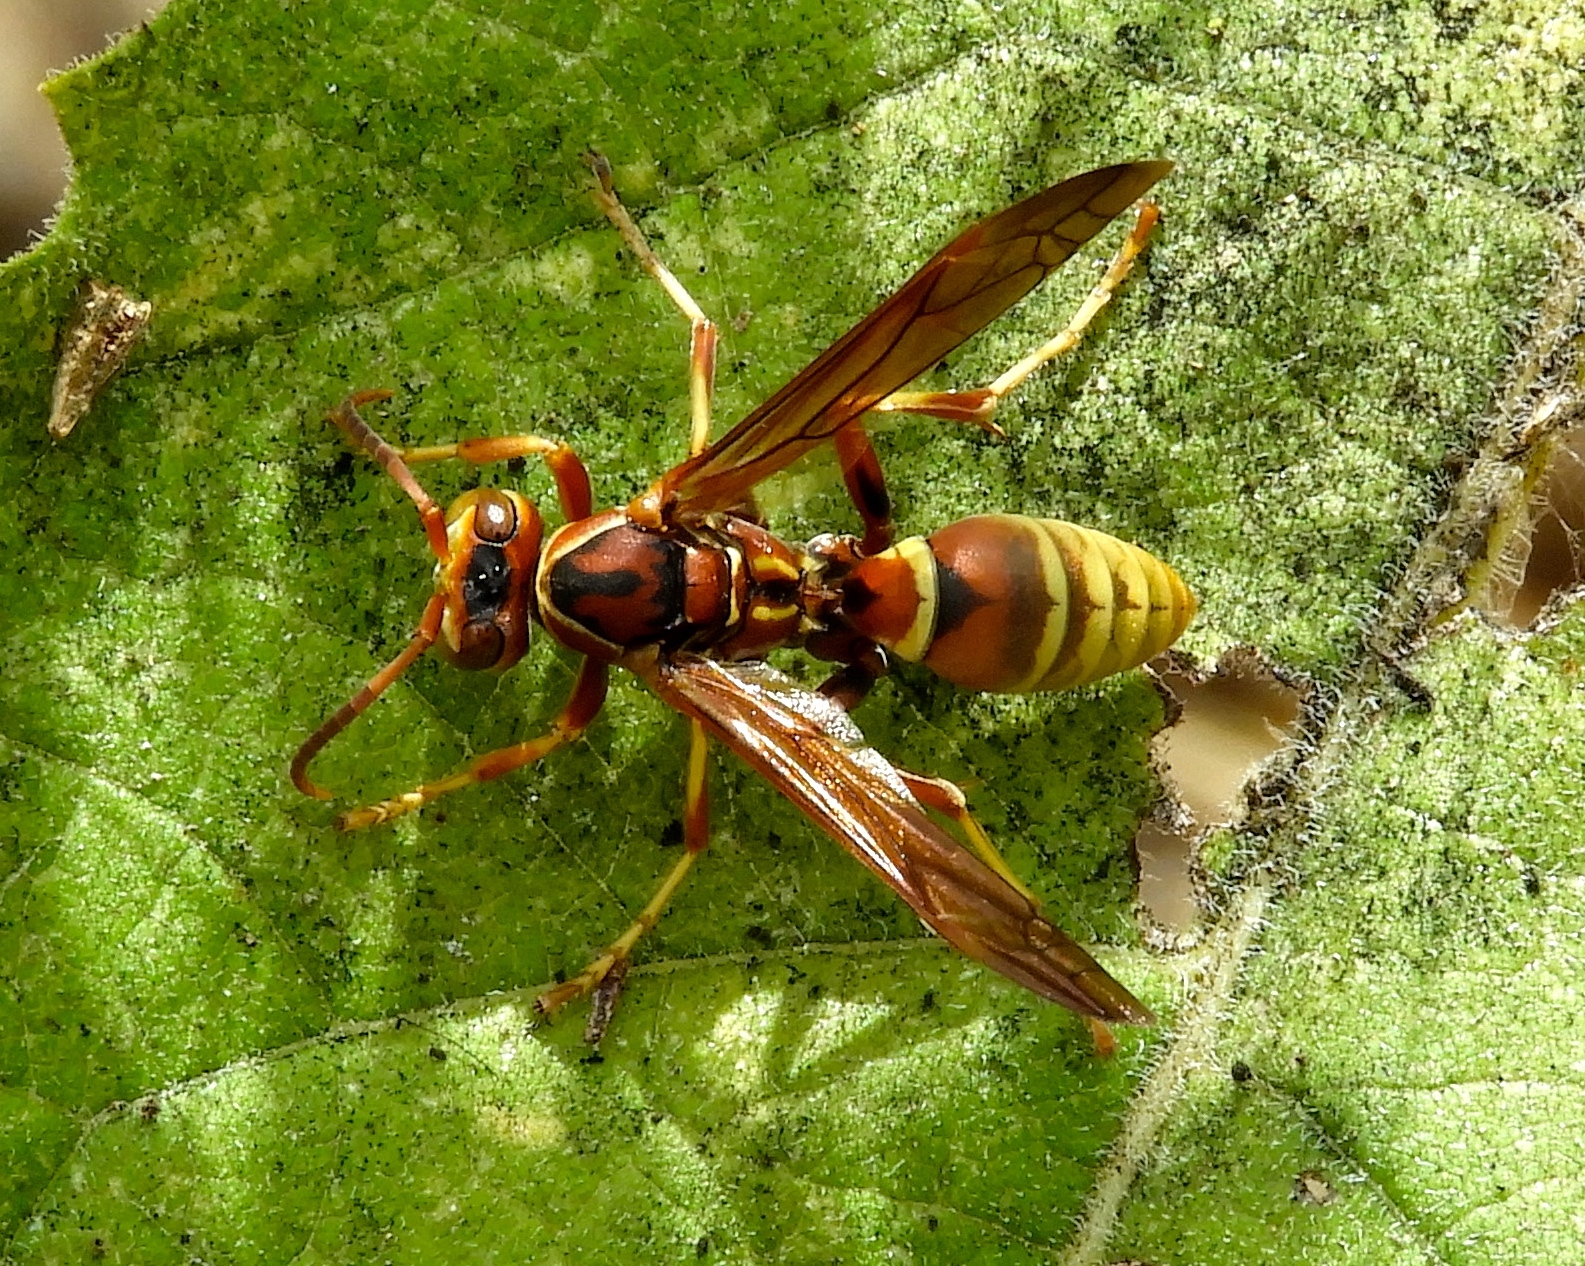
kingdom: Animalia
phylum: Arthropoda
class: Insecta
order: Hymenoptera
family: Eumenidae
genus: Polistes
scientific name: Polistes dorsalis
